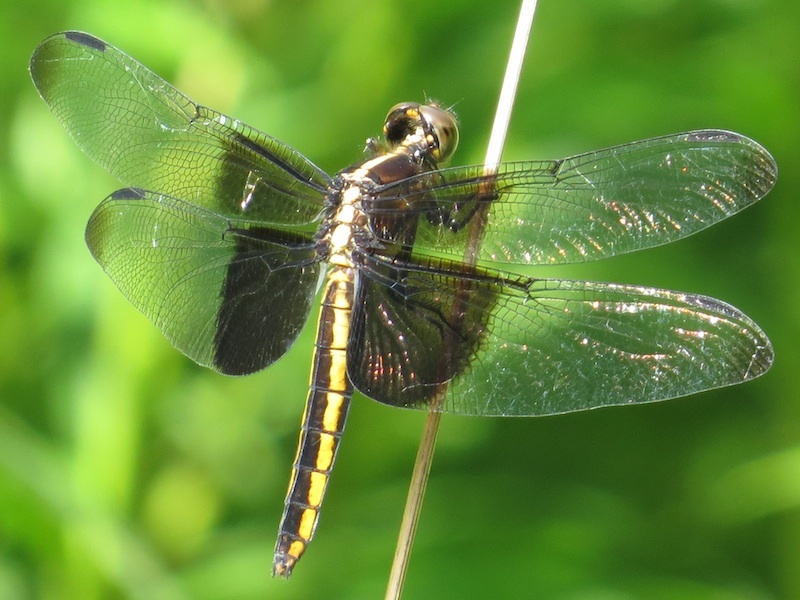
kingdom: Animalia
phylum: Arthropoda
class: Insecta
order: Odonata
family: Libellulidae
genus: Libellula
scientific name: Libellula luctuosa
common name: Widow skimmer
